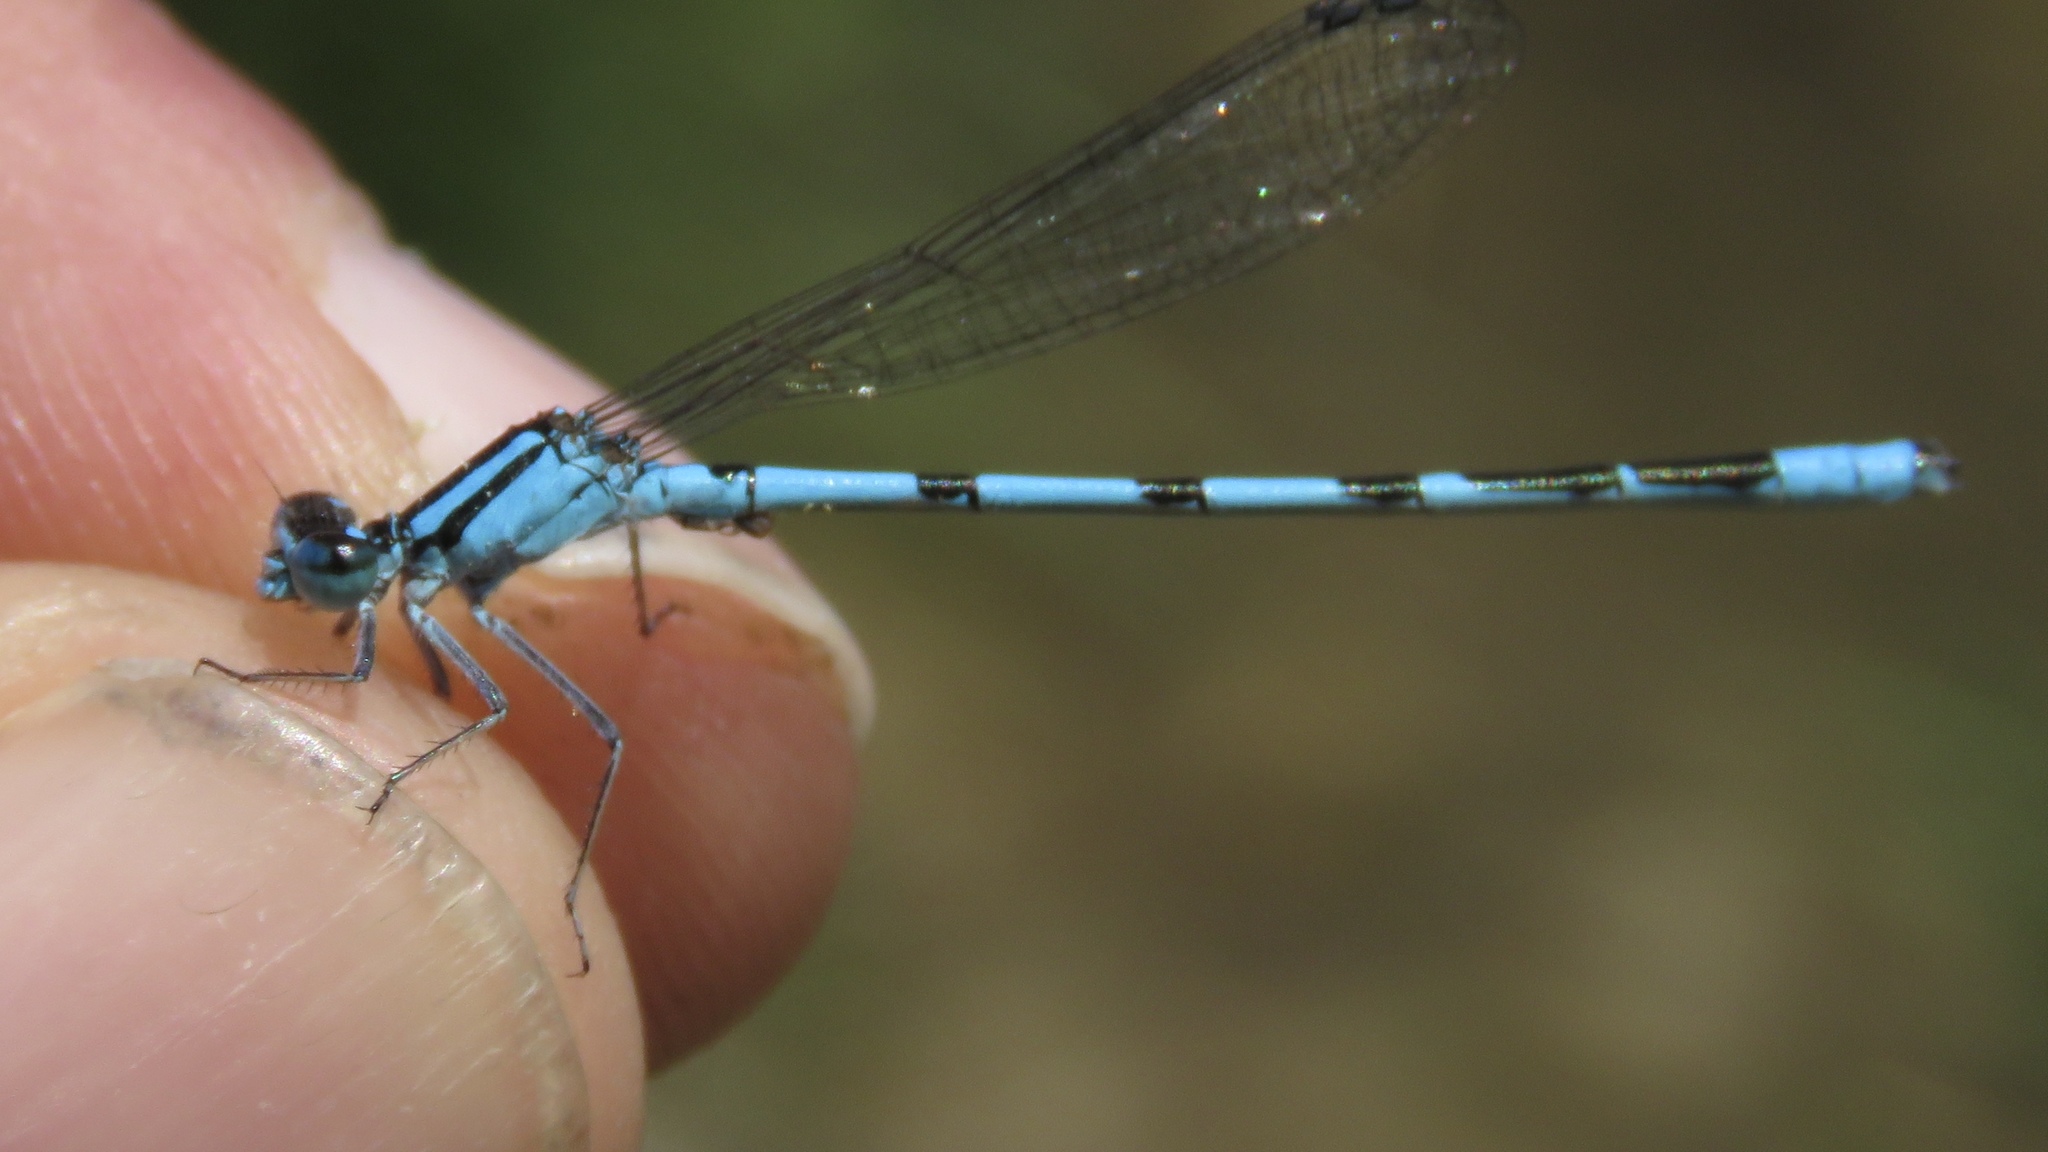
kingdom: Animalia
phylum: Arthropoda
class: Insecta
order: Odonata
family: Coenagrionidae
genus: Enallagma
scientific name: Enallagma ebrium
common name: Marsh bluet
